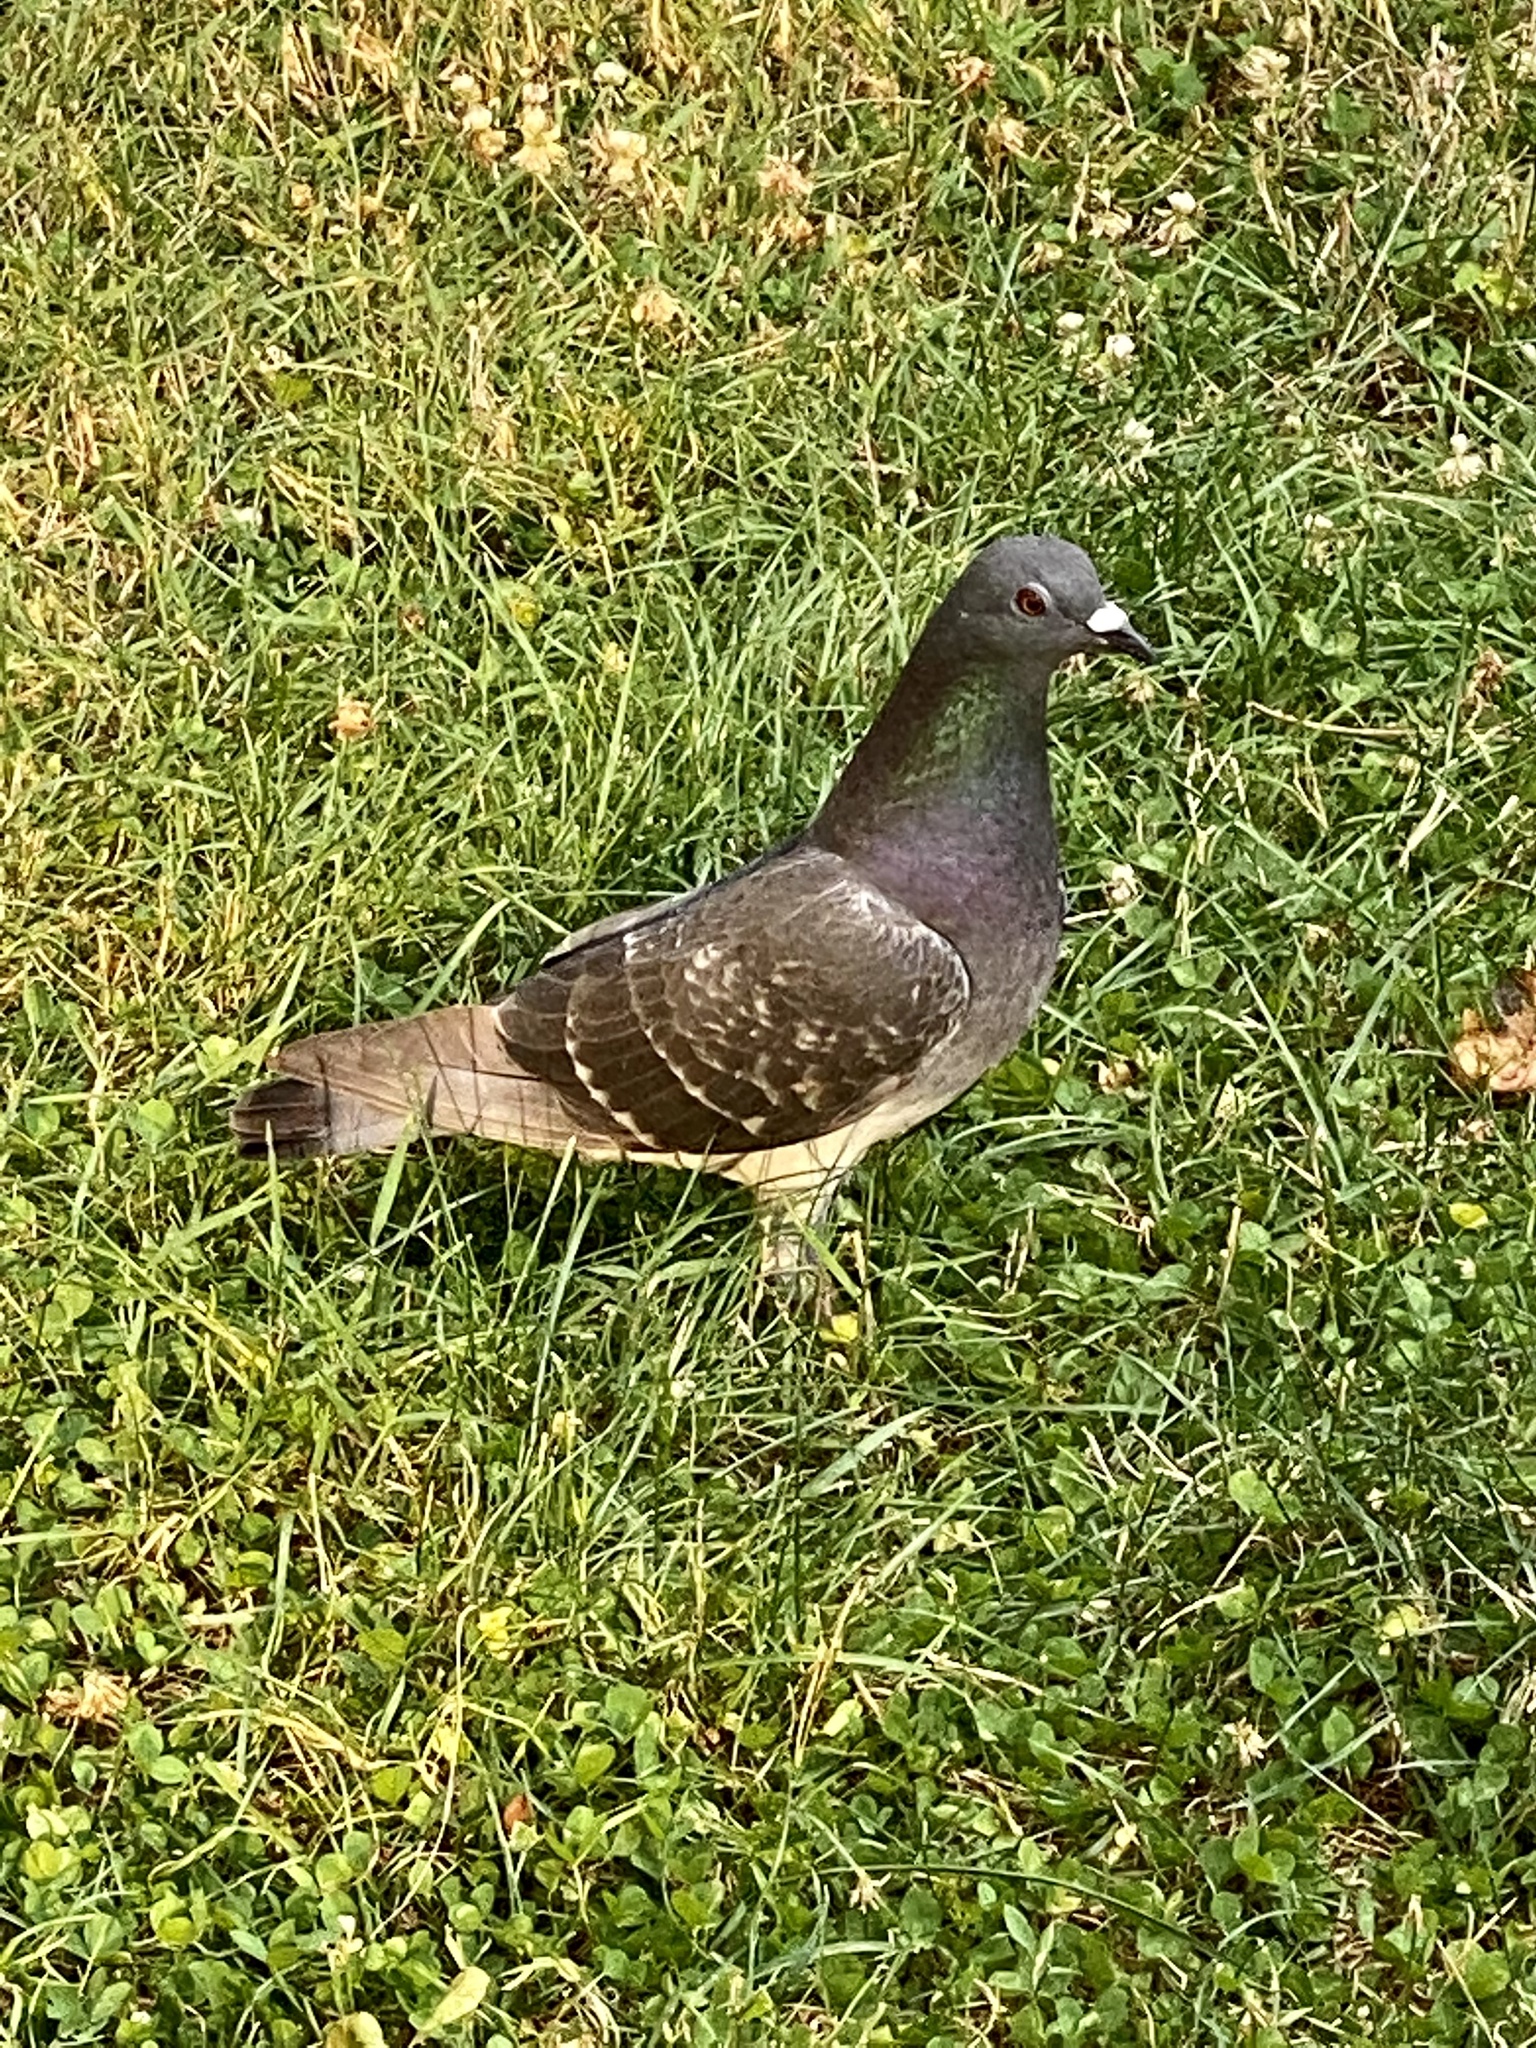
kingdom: Animalia
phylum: Chordata
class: Aves
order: Columbiformes
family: Columbidae
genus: Columba
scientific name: Columba livia
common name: Rock pigeon
